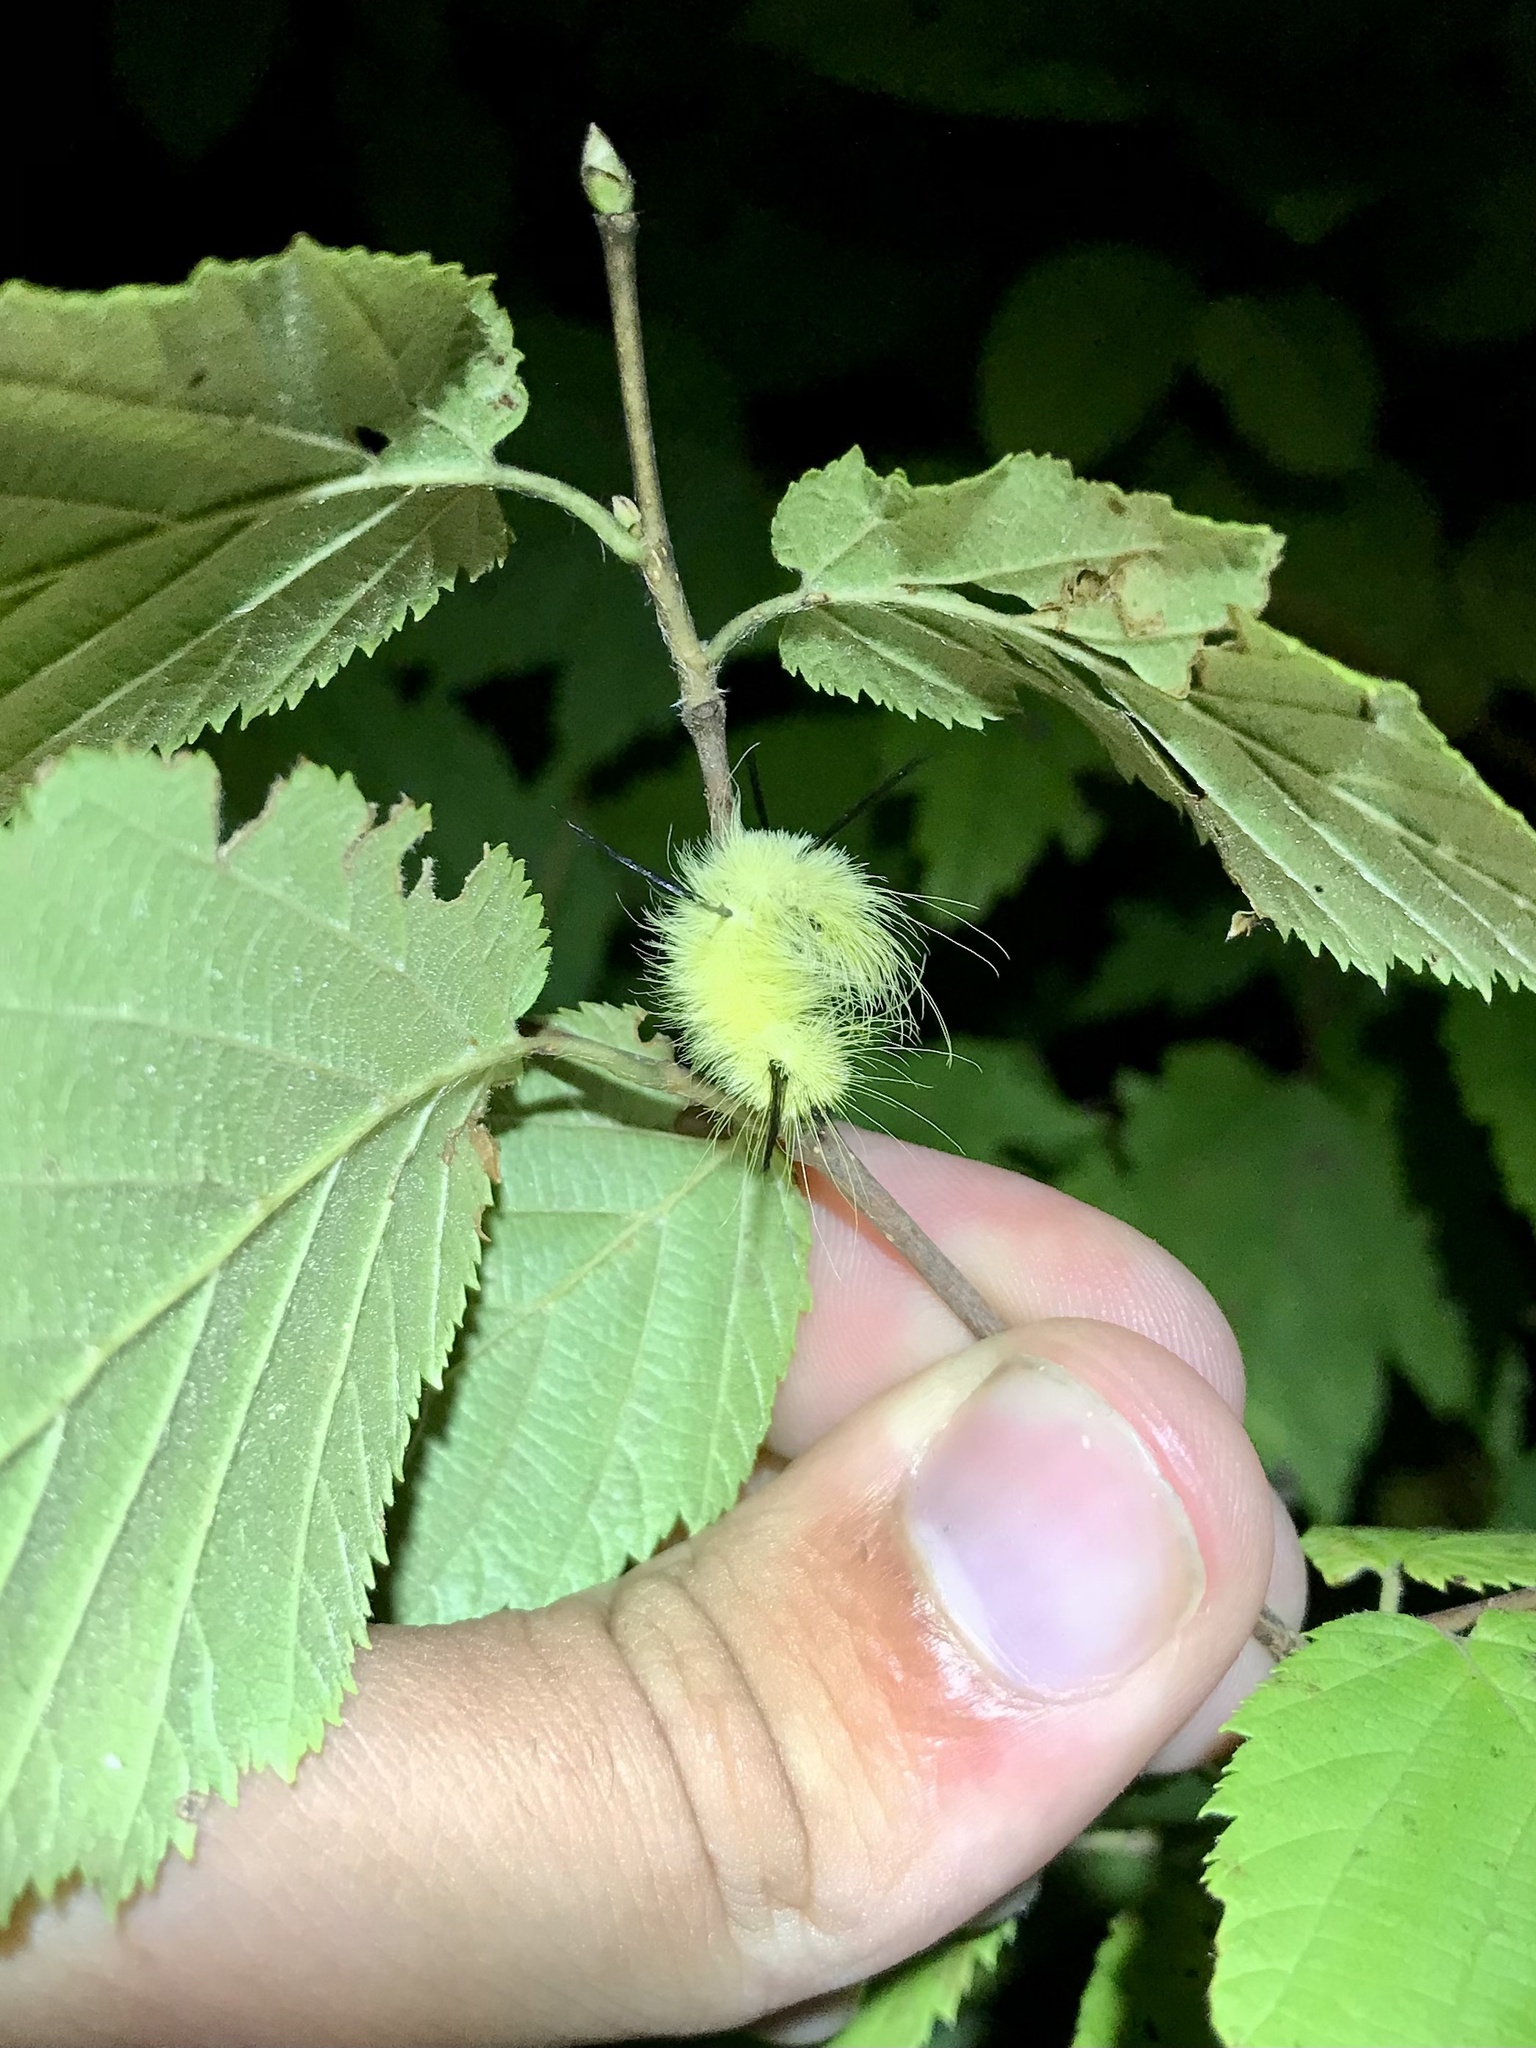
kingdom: Animalia
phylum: Arthropoda
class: Insecta
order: Lepidoptera
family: Noctuidae
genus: Acronicta
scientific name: Acronicta americana
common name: American dagger
